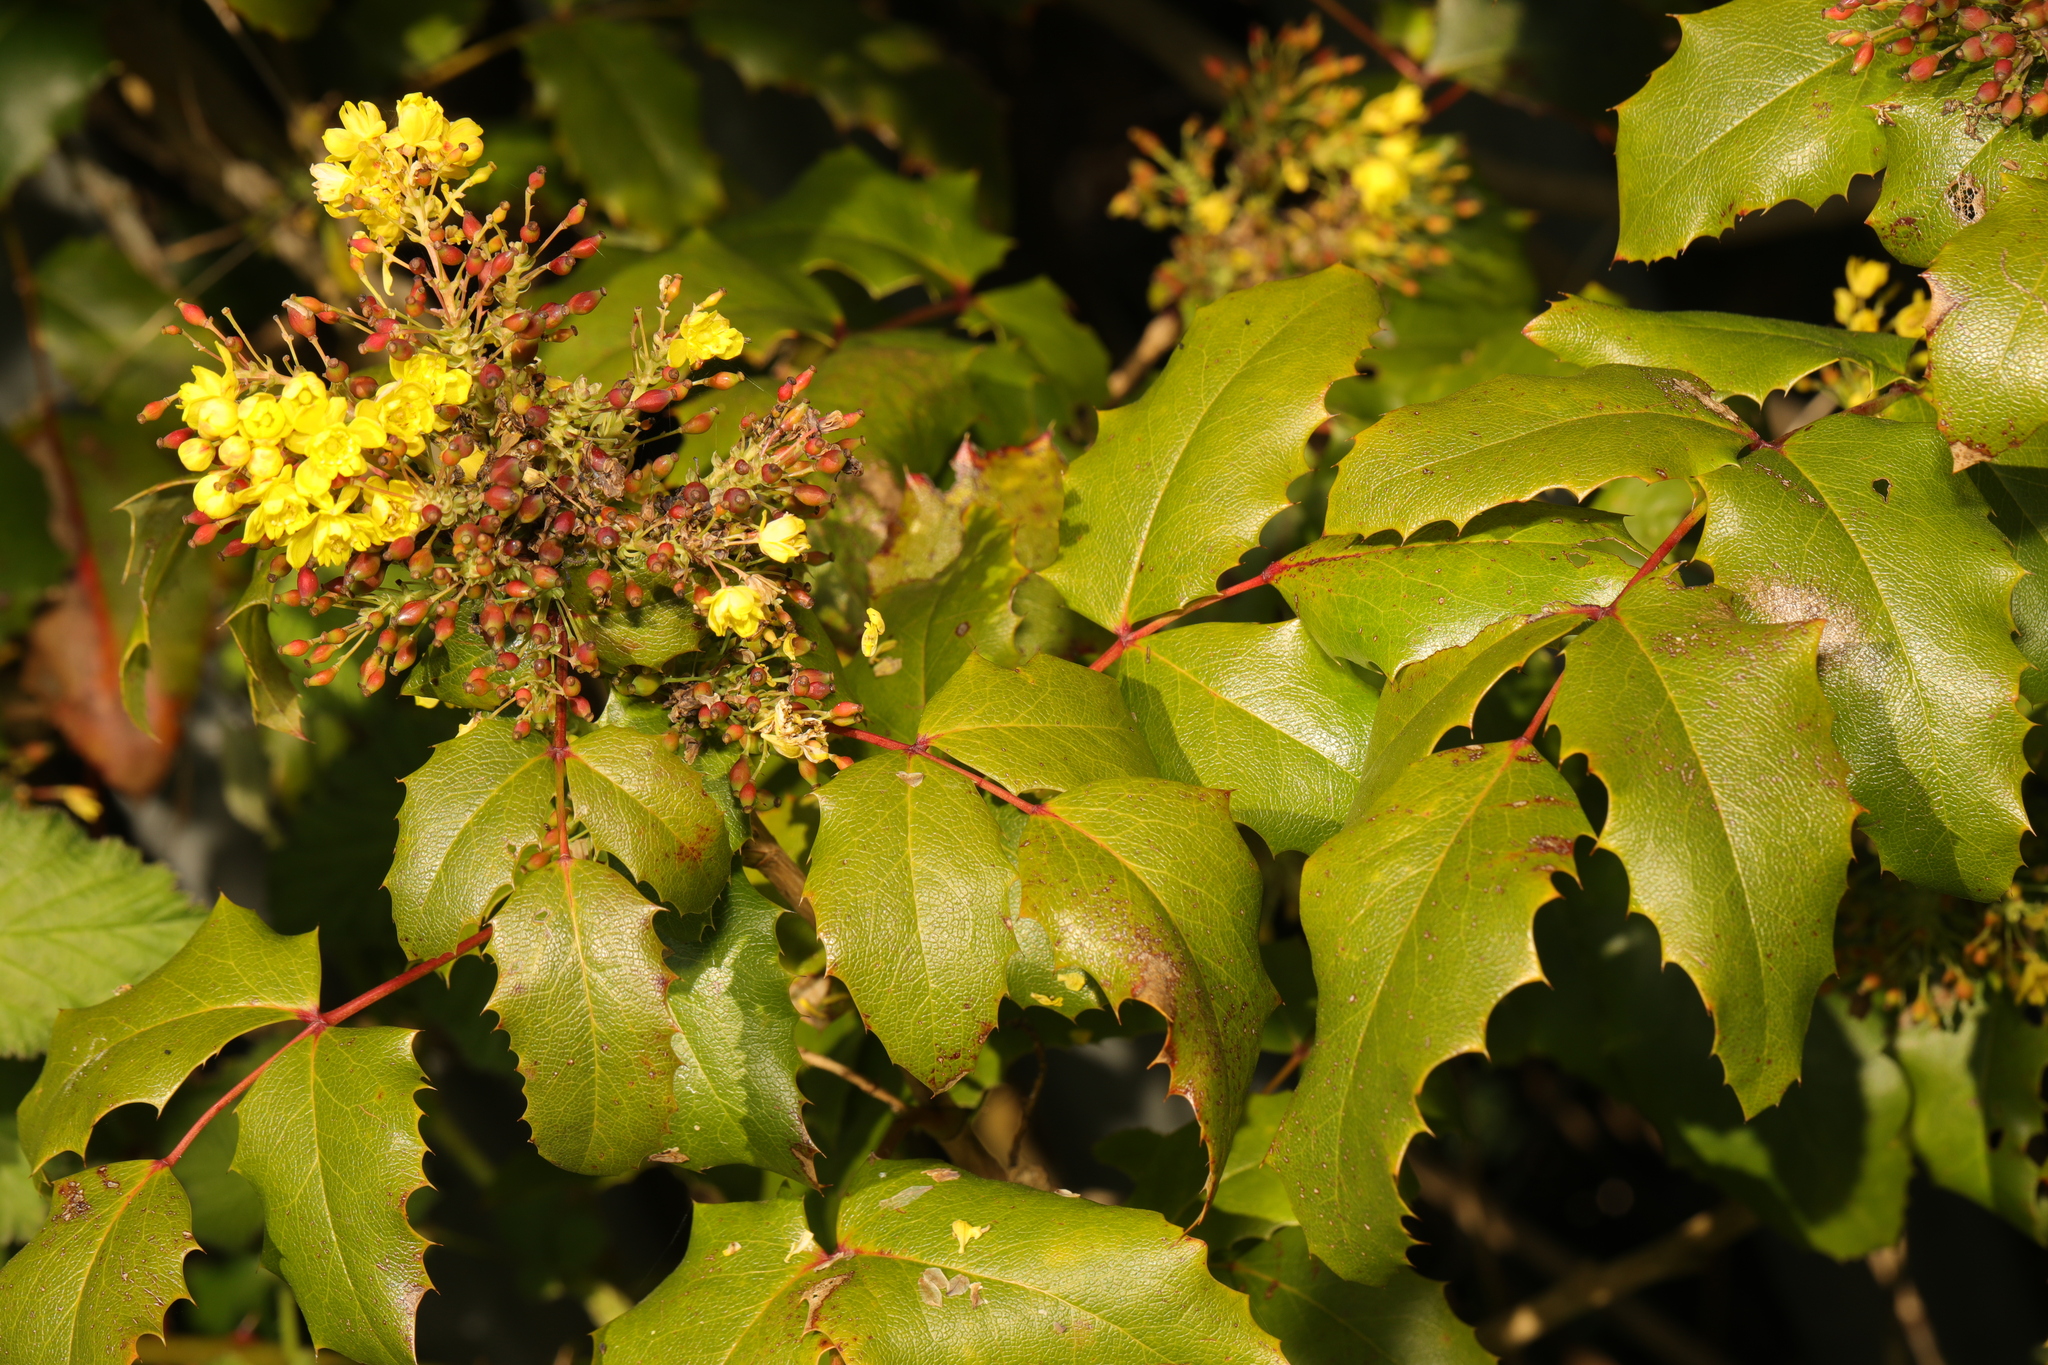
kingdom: Plantae
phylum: Tracheophyta
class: Magnoliopsida
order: Ranunculales
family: Berberidaceae
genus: Mahonia
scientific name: Mahonia aquifolium
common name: Oregon-grape
